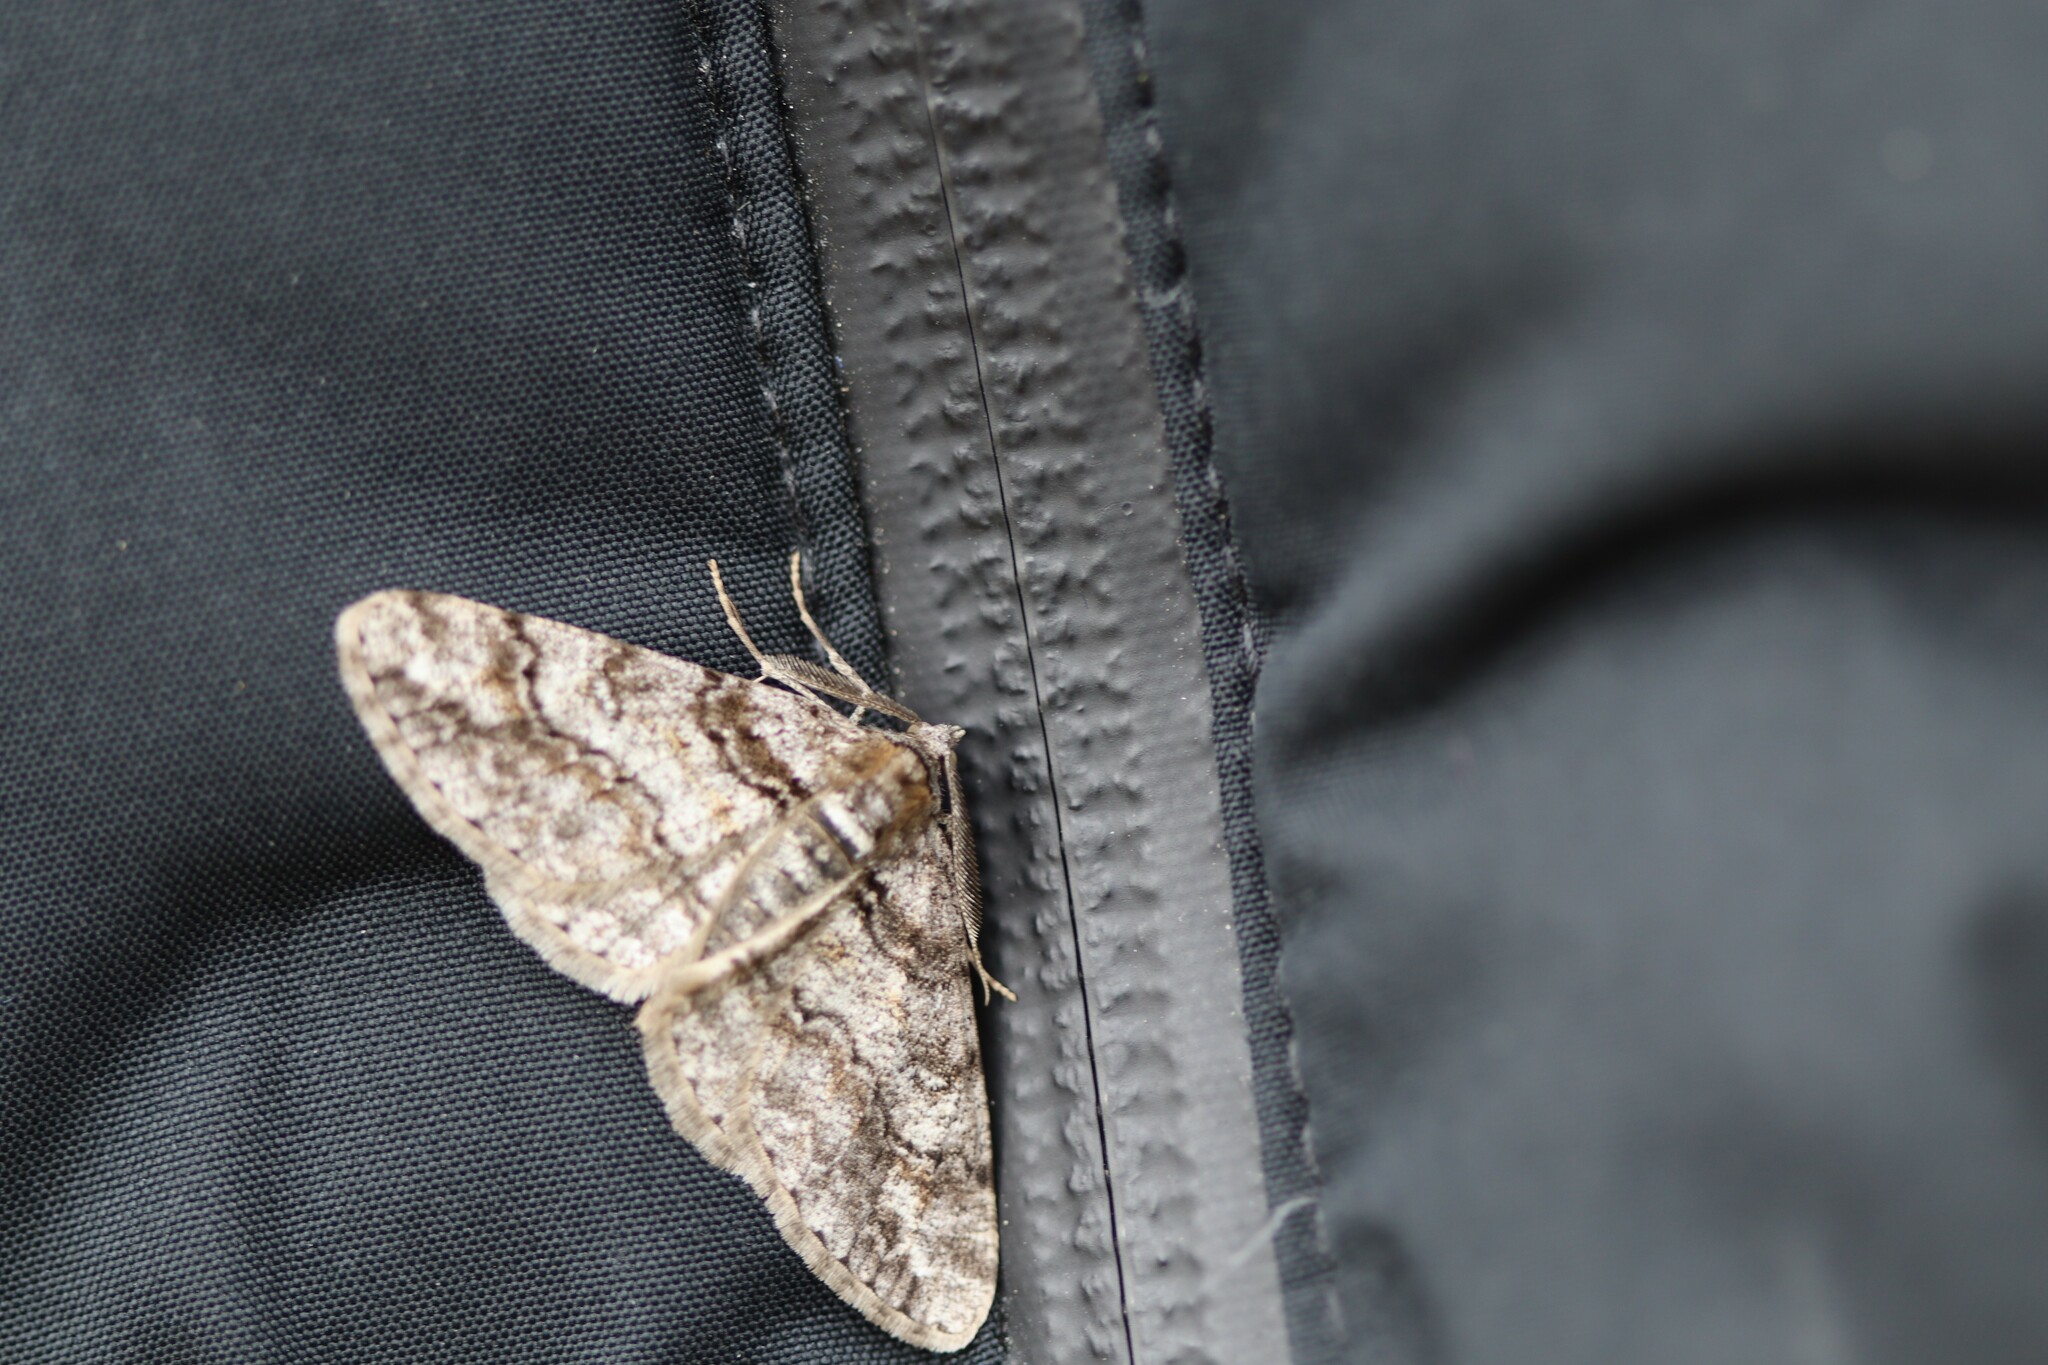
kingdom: Animalia
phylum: Arthropoda
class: Insecta
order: Lepidoptera
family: Geometridae
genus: Cleora
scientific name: Cleora cinctaria
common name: Ringed carpet
